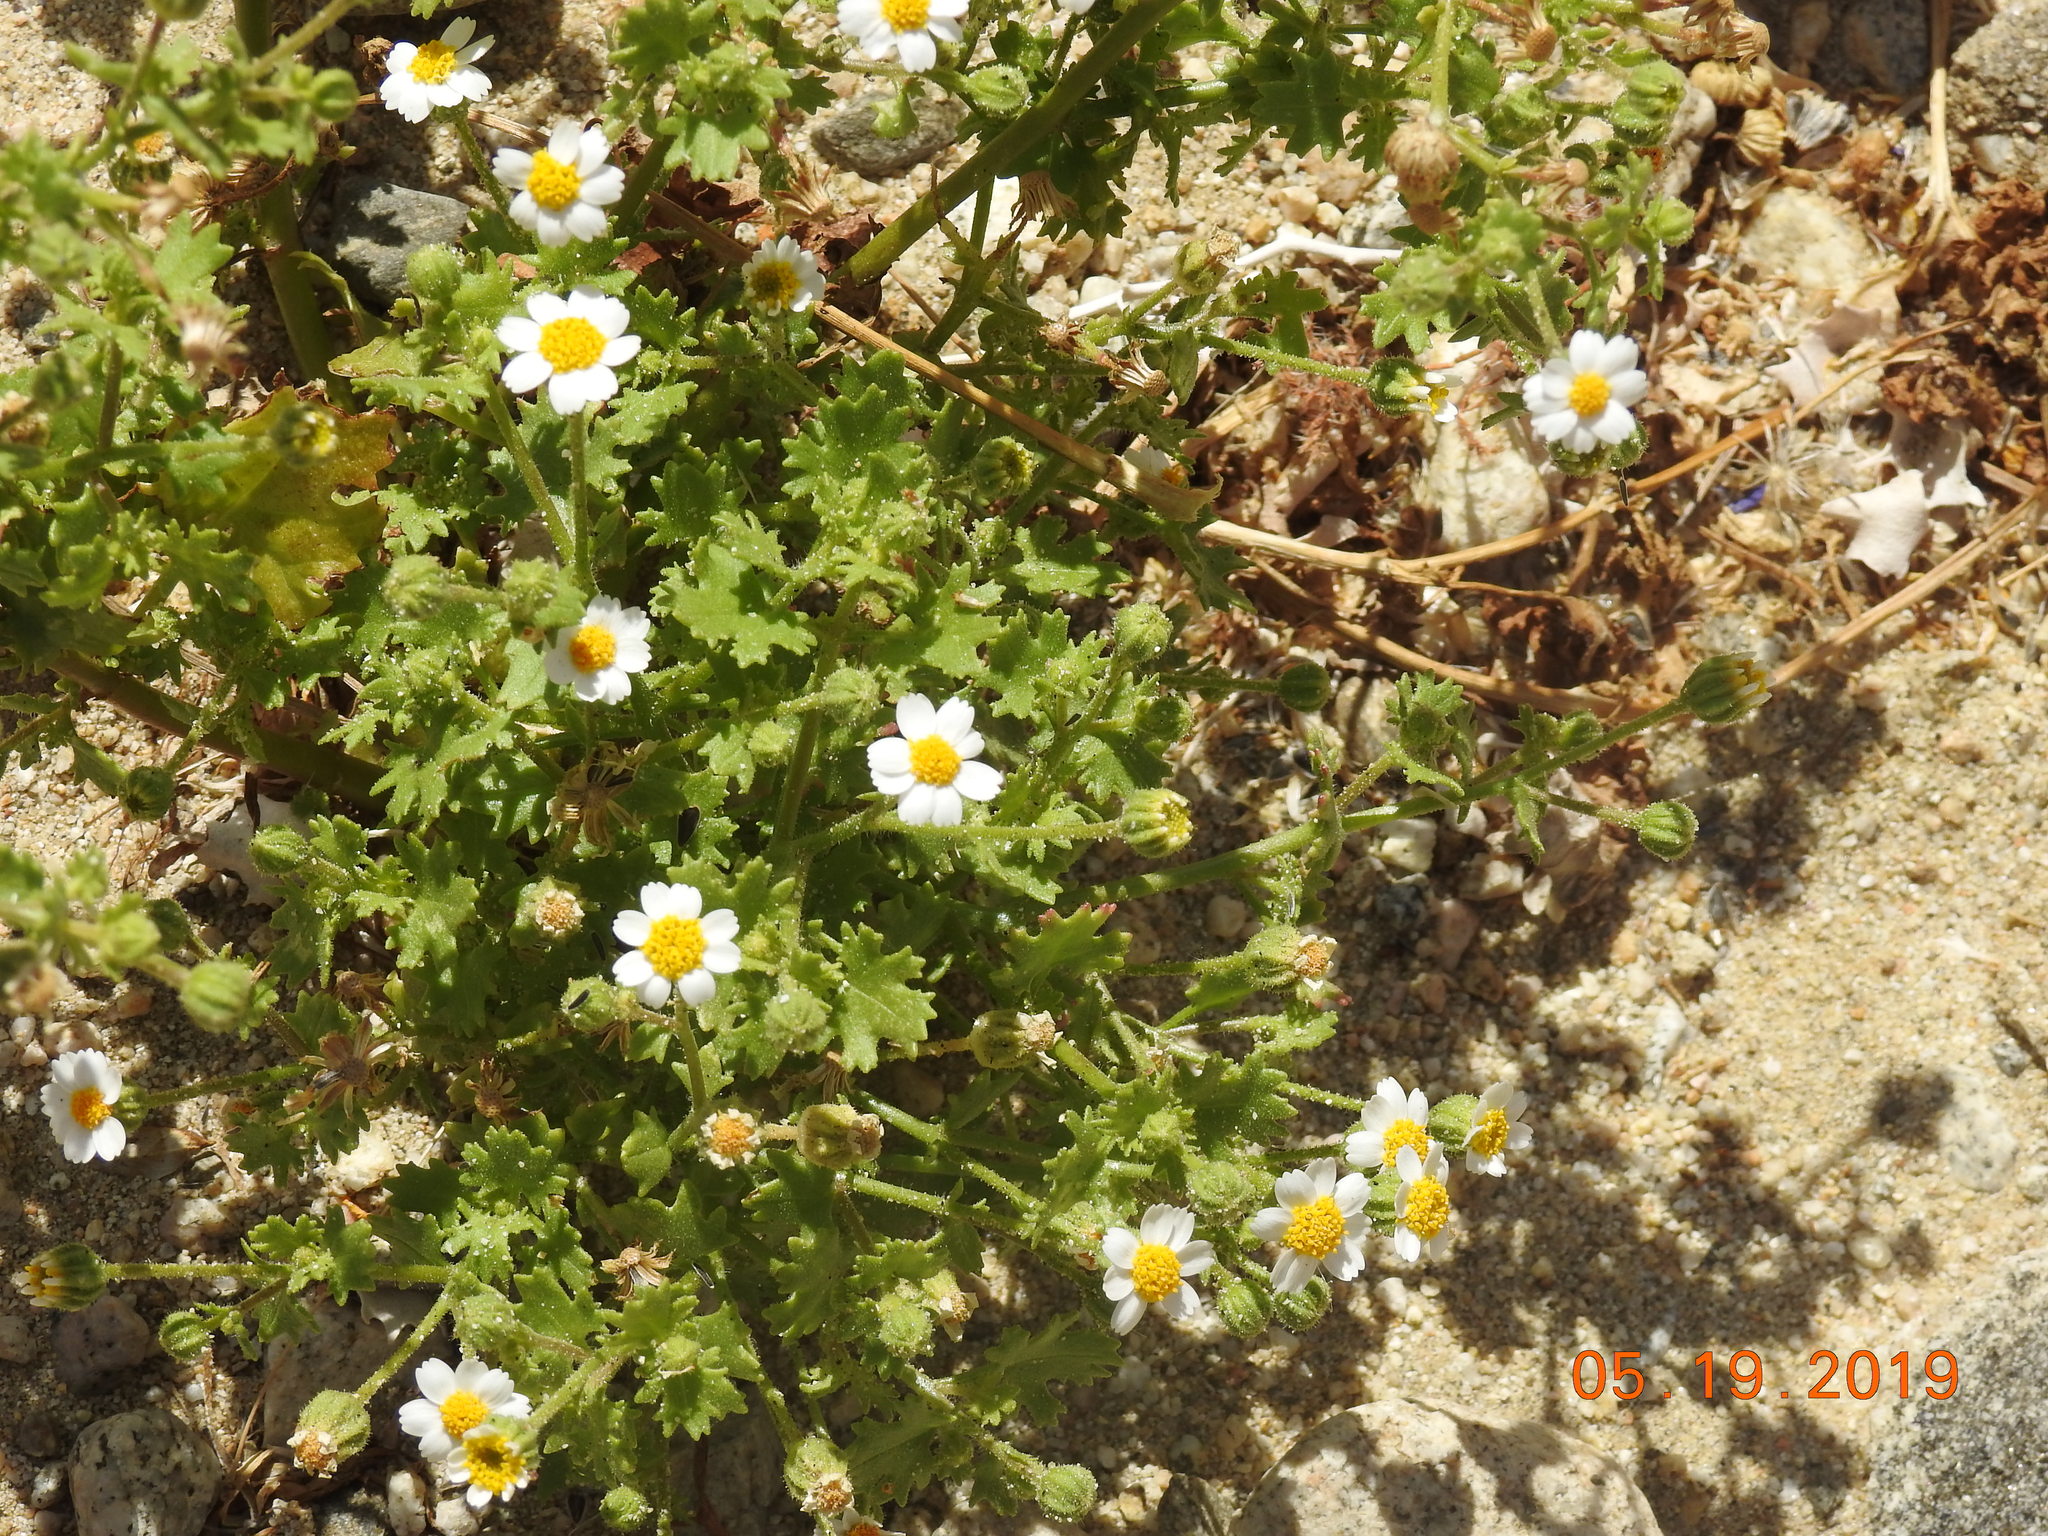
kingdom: Plantae
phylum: Tracheophyta
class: Magnoliopsida
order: Asterales
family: Asteraceae
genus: Laphamia
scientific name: Laphamia emoryi
